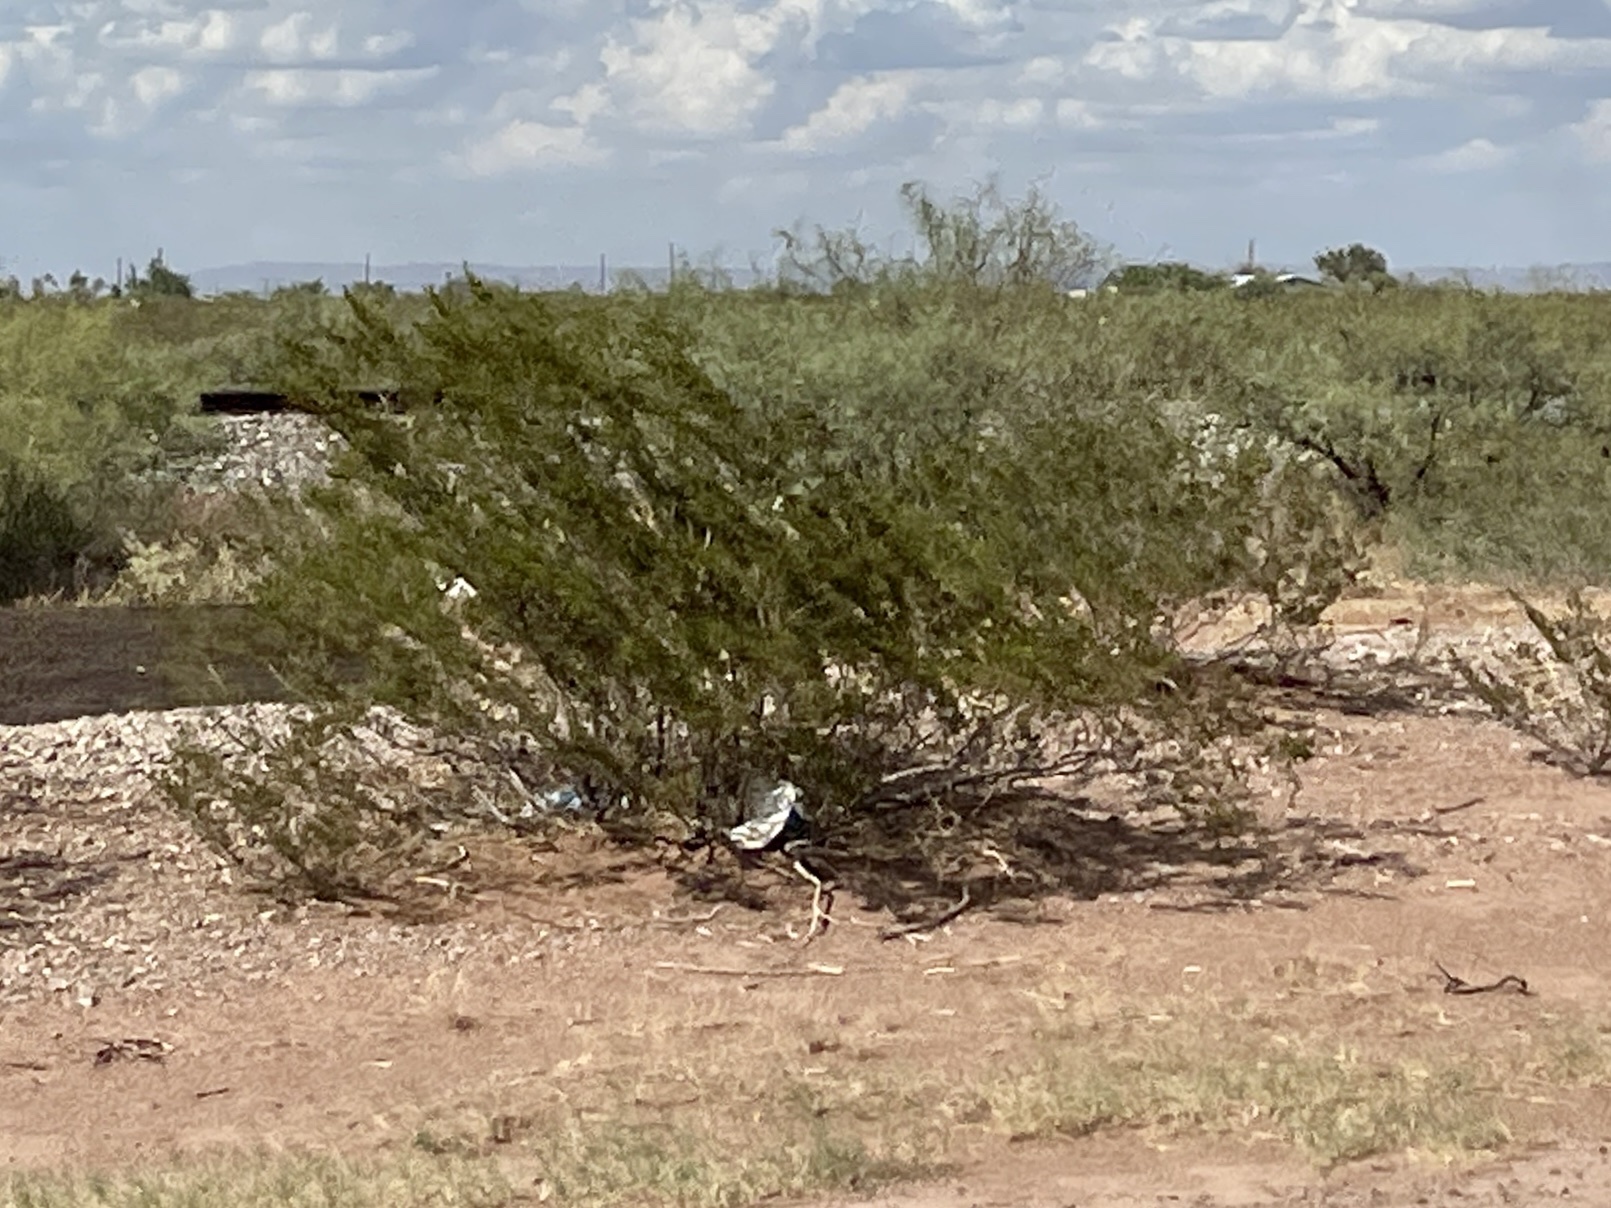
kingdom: Plantae
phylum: Tracheophyta
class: Magnoliopsida
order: Zygophyllales
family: Zygophyllaceae
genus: Larrea
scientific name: Larrea tridentata
